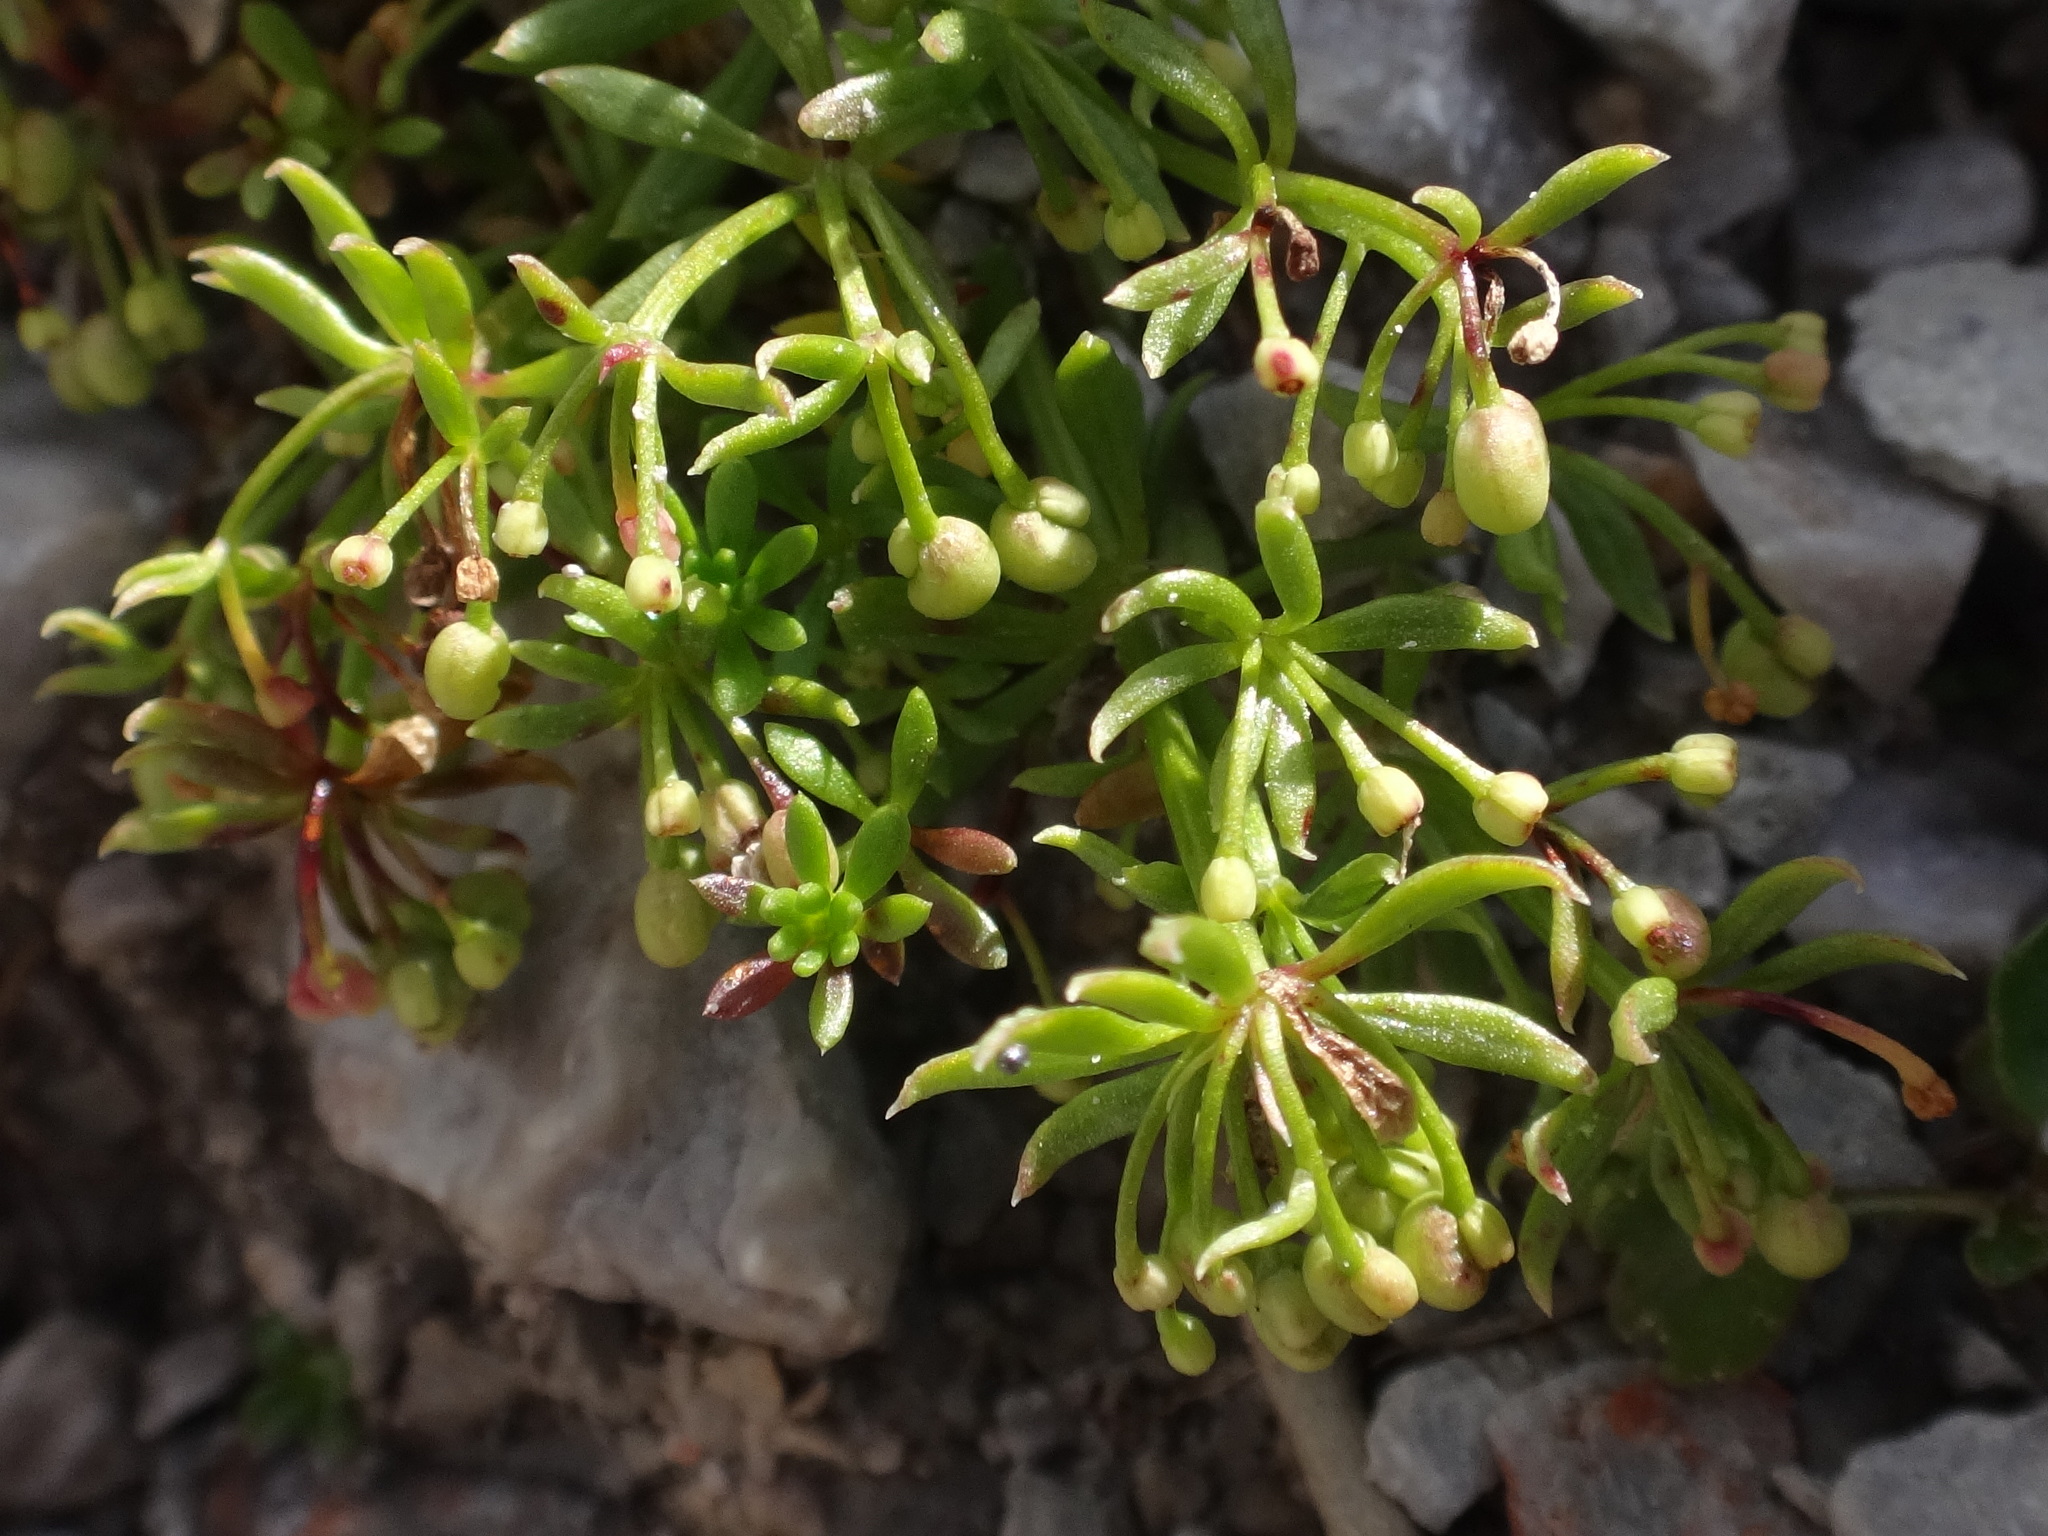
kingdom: Plantae
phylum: Tracheophyta
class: Magnoliopsida
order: Gentianales
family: Rubiaceae
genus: Galium
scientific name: Galium megalospermum
